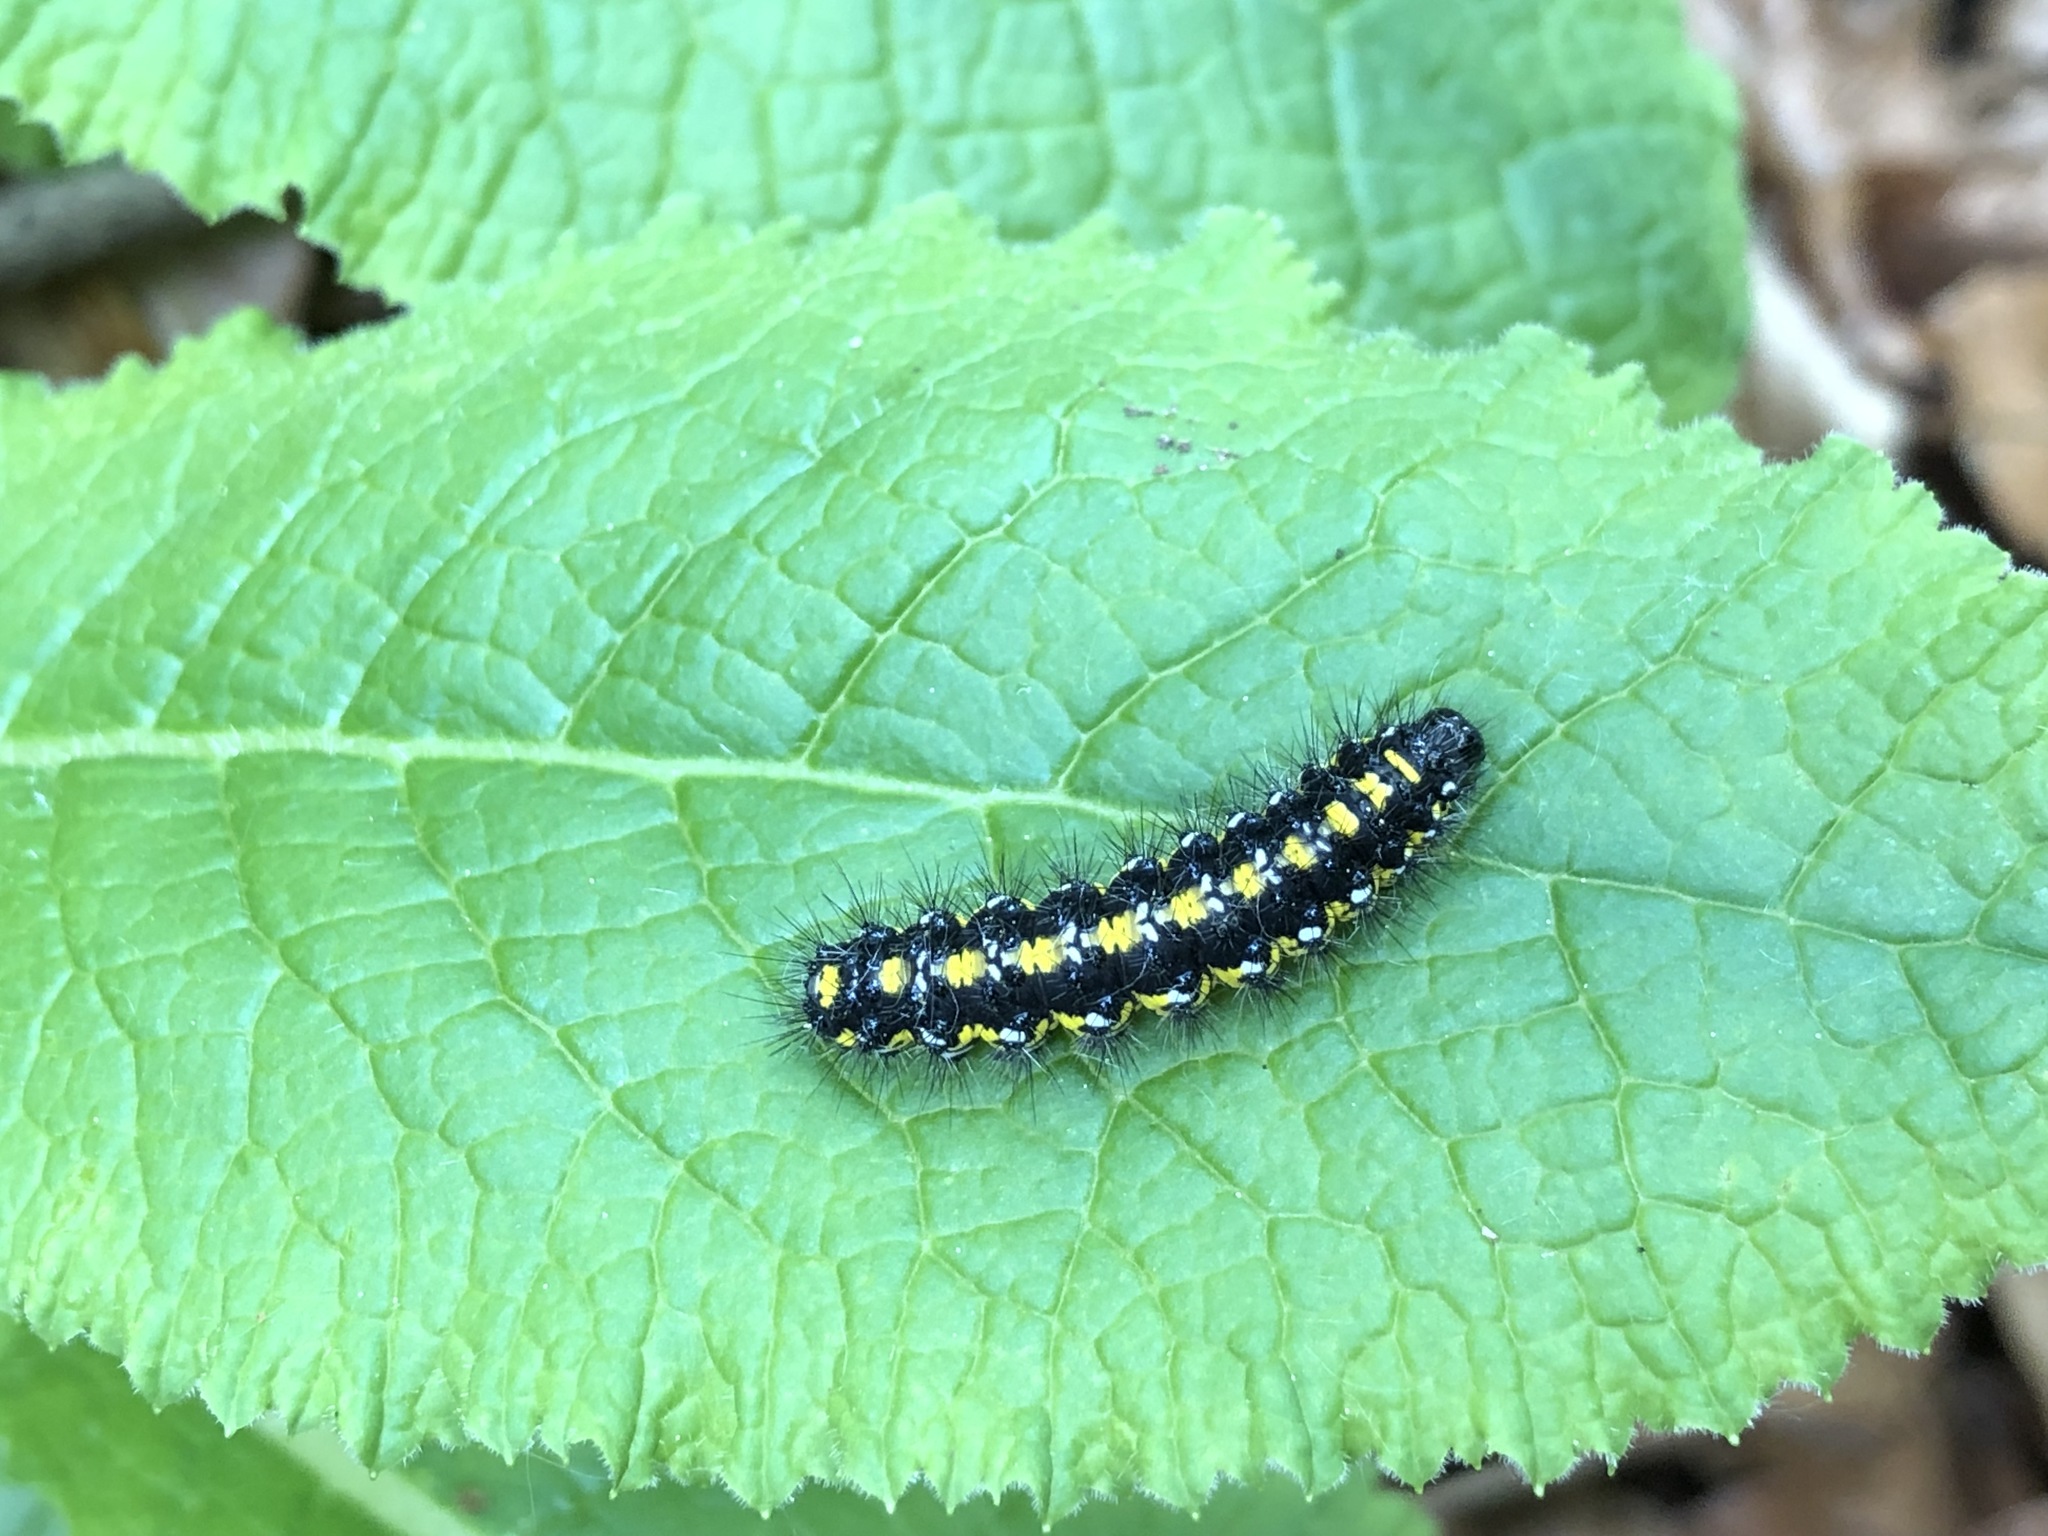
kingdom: Animalia
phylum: Arthropoda
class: Insecta
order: Lepidoptera
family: Erebidae
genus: Callimorpha
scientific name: Callimorpha dominula
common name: Scarlet tiger
